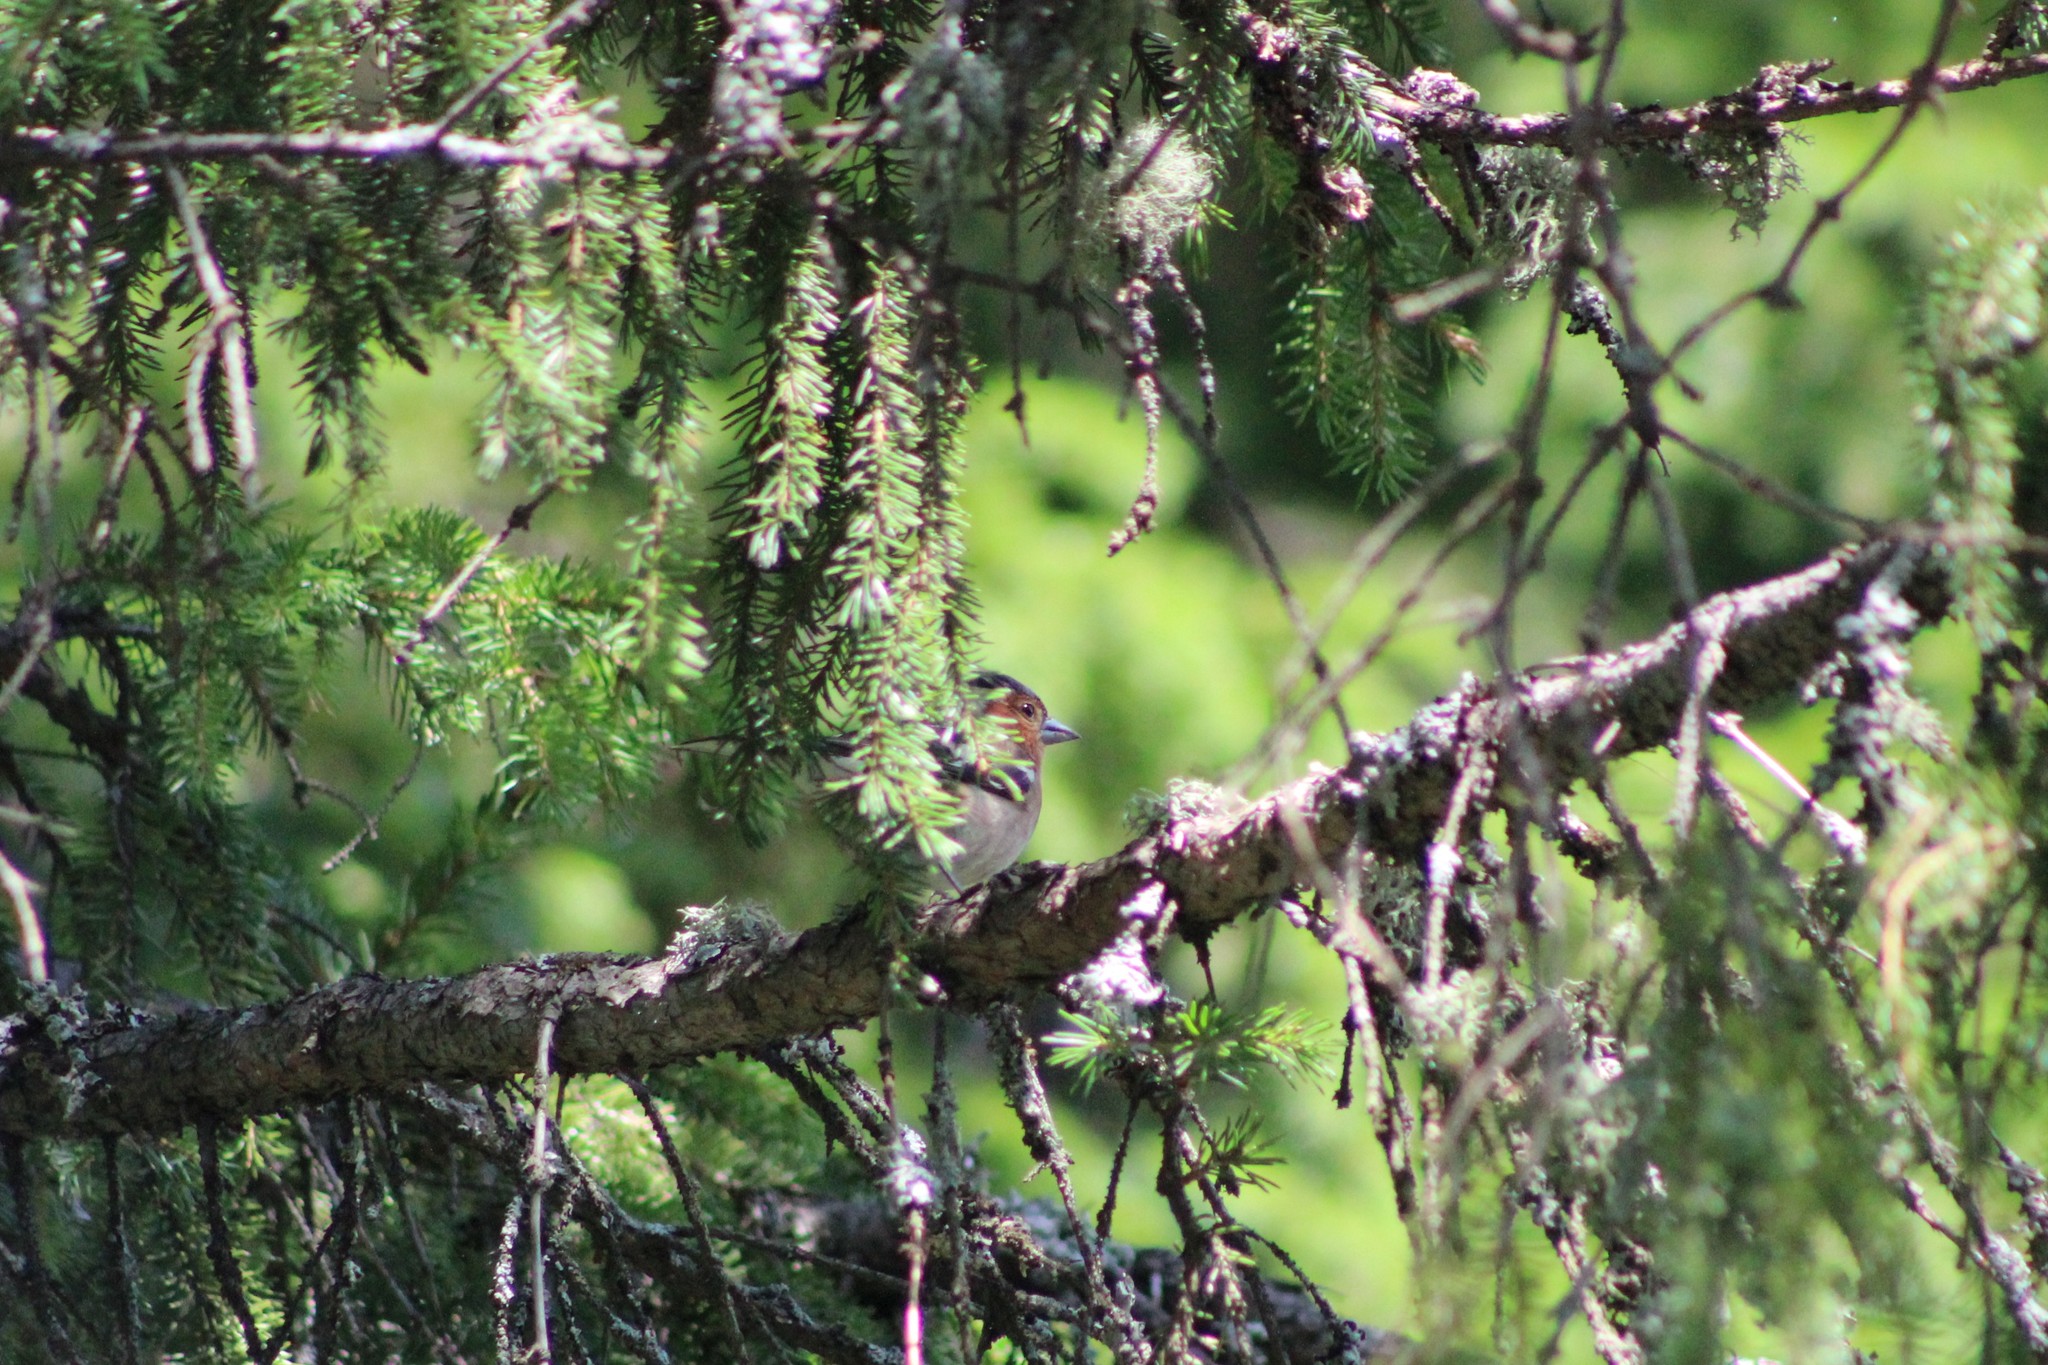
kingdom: Animalia
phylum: Chordata
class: Aves
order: Passeriformes
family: Fringillidae
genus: Fringilla
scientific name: Fringilla coelebs
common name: Common chaffinch
